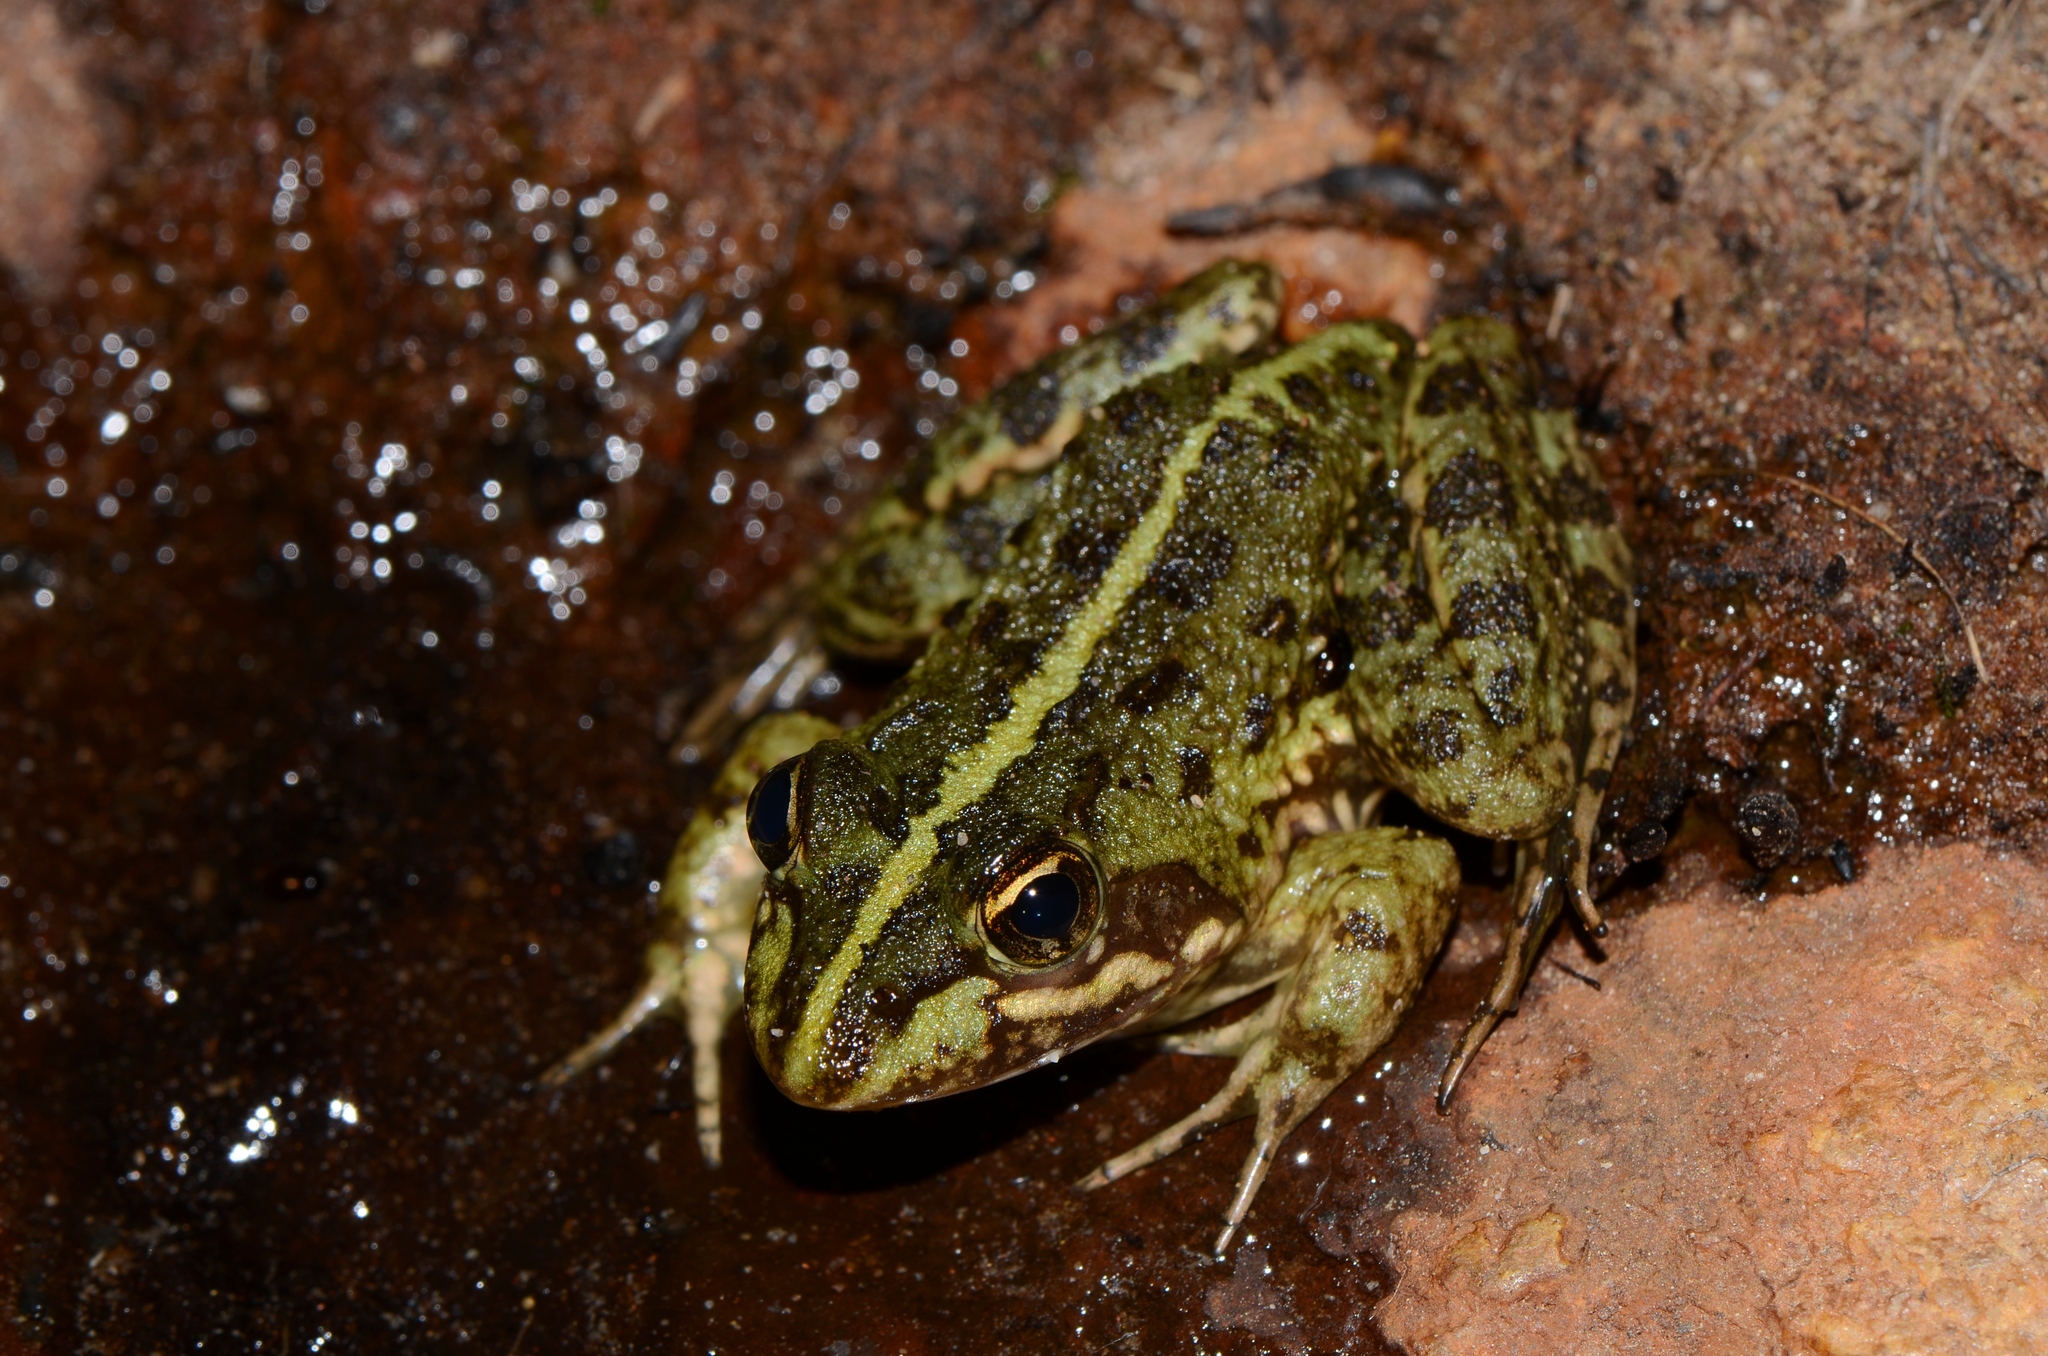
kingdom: Animalia
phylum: Chordata
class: Amphibia
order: Anura
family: Pyxicephalidae
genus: Amietia
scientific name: Amietia fuscigula
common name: Cape rana
